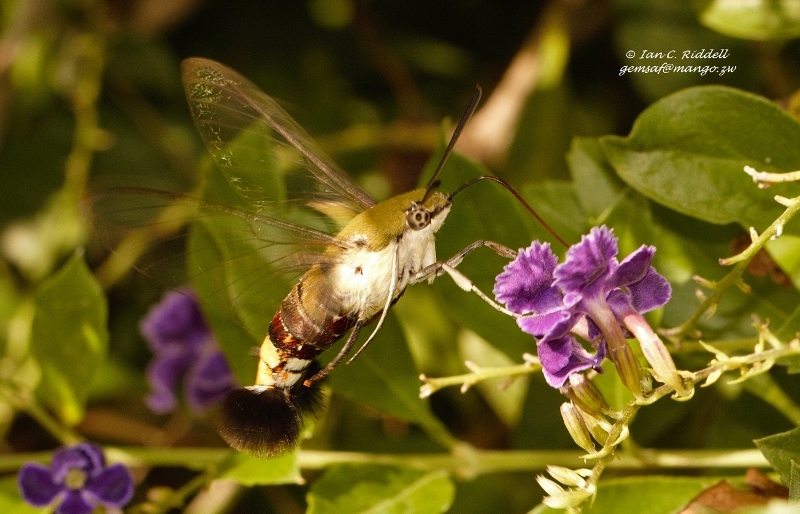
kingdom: Animalia
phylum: Arthropoda
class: Insecta
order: Lepidoptera
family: Sphingidae
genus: Cephonodes
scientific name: Cephonodes hylas
